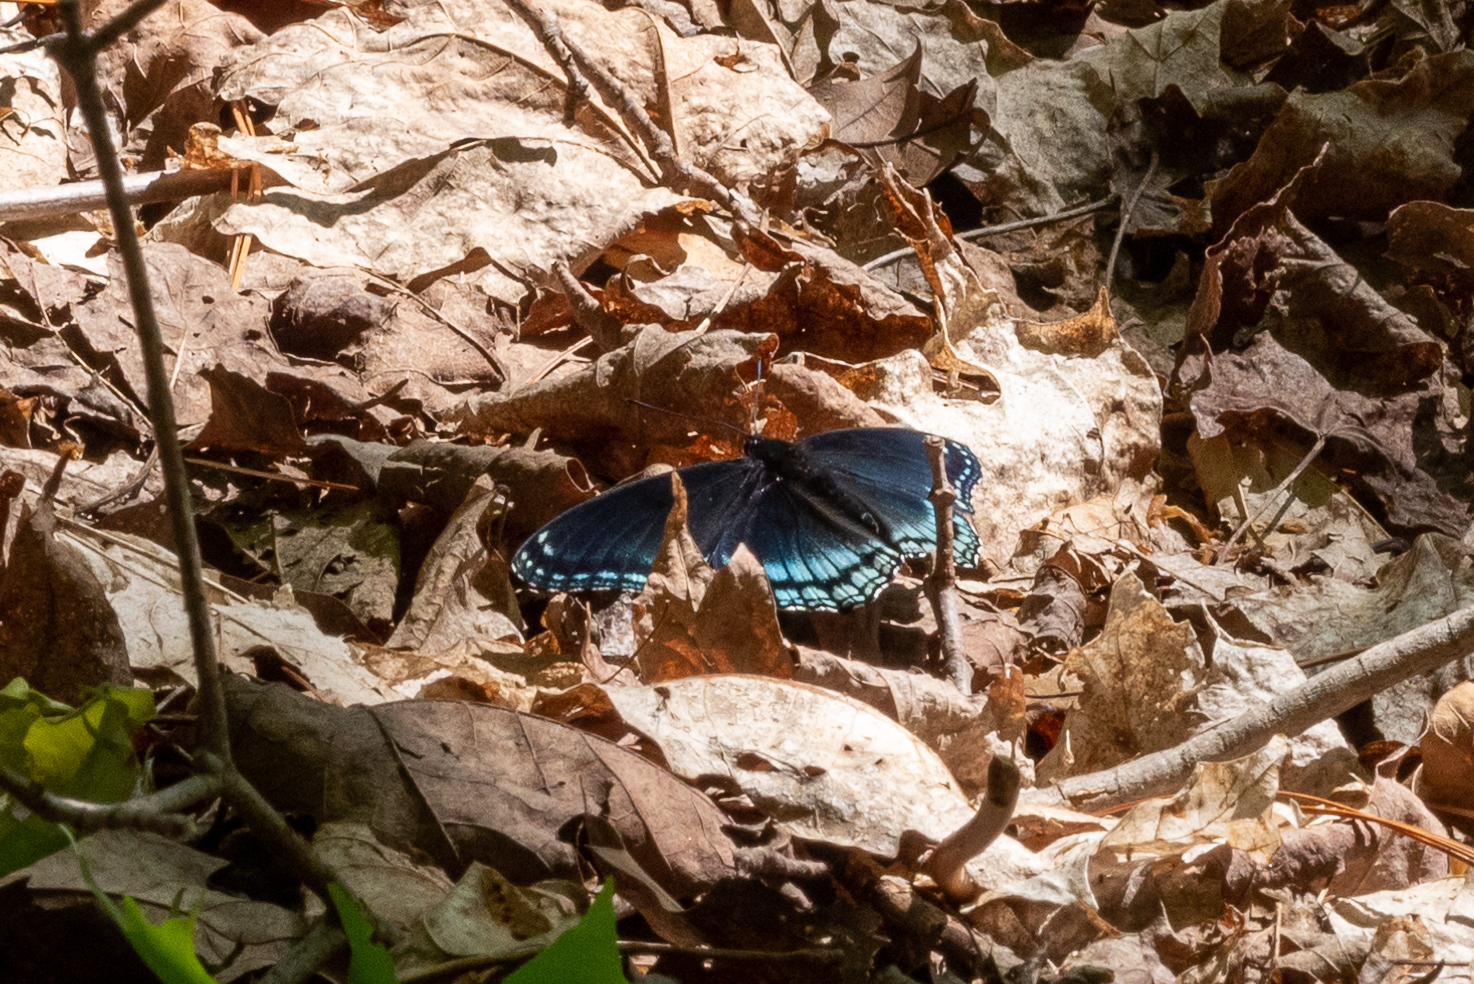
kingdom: Animalia
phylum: Arthropoda
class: Insecta
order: Lepidoptera
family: Nymphalidae
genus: Limenitis
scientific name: Limenitis astyanax
